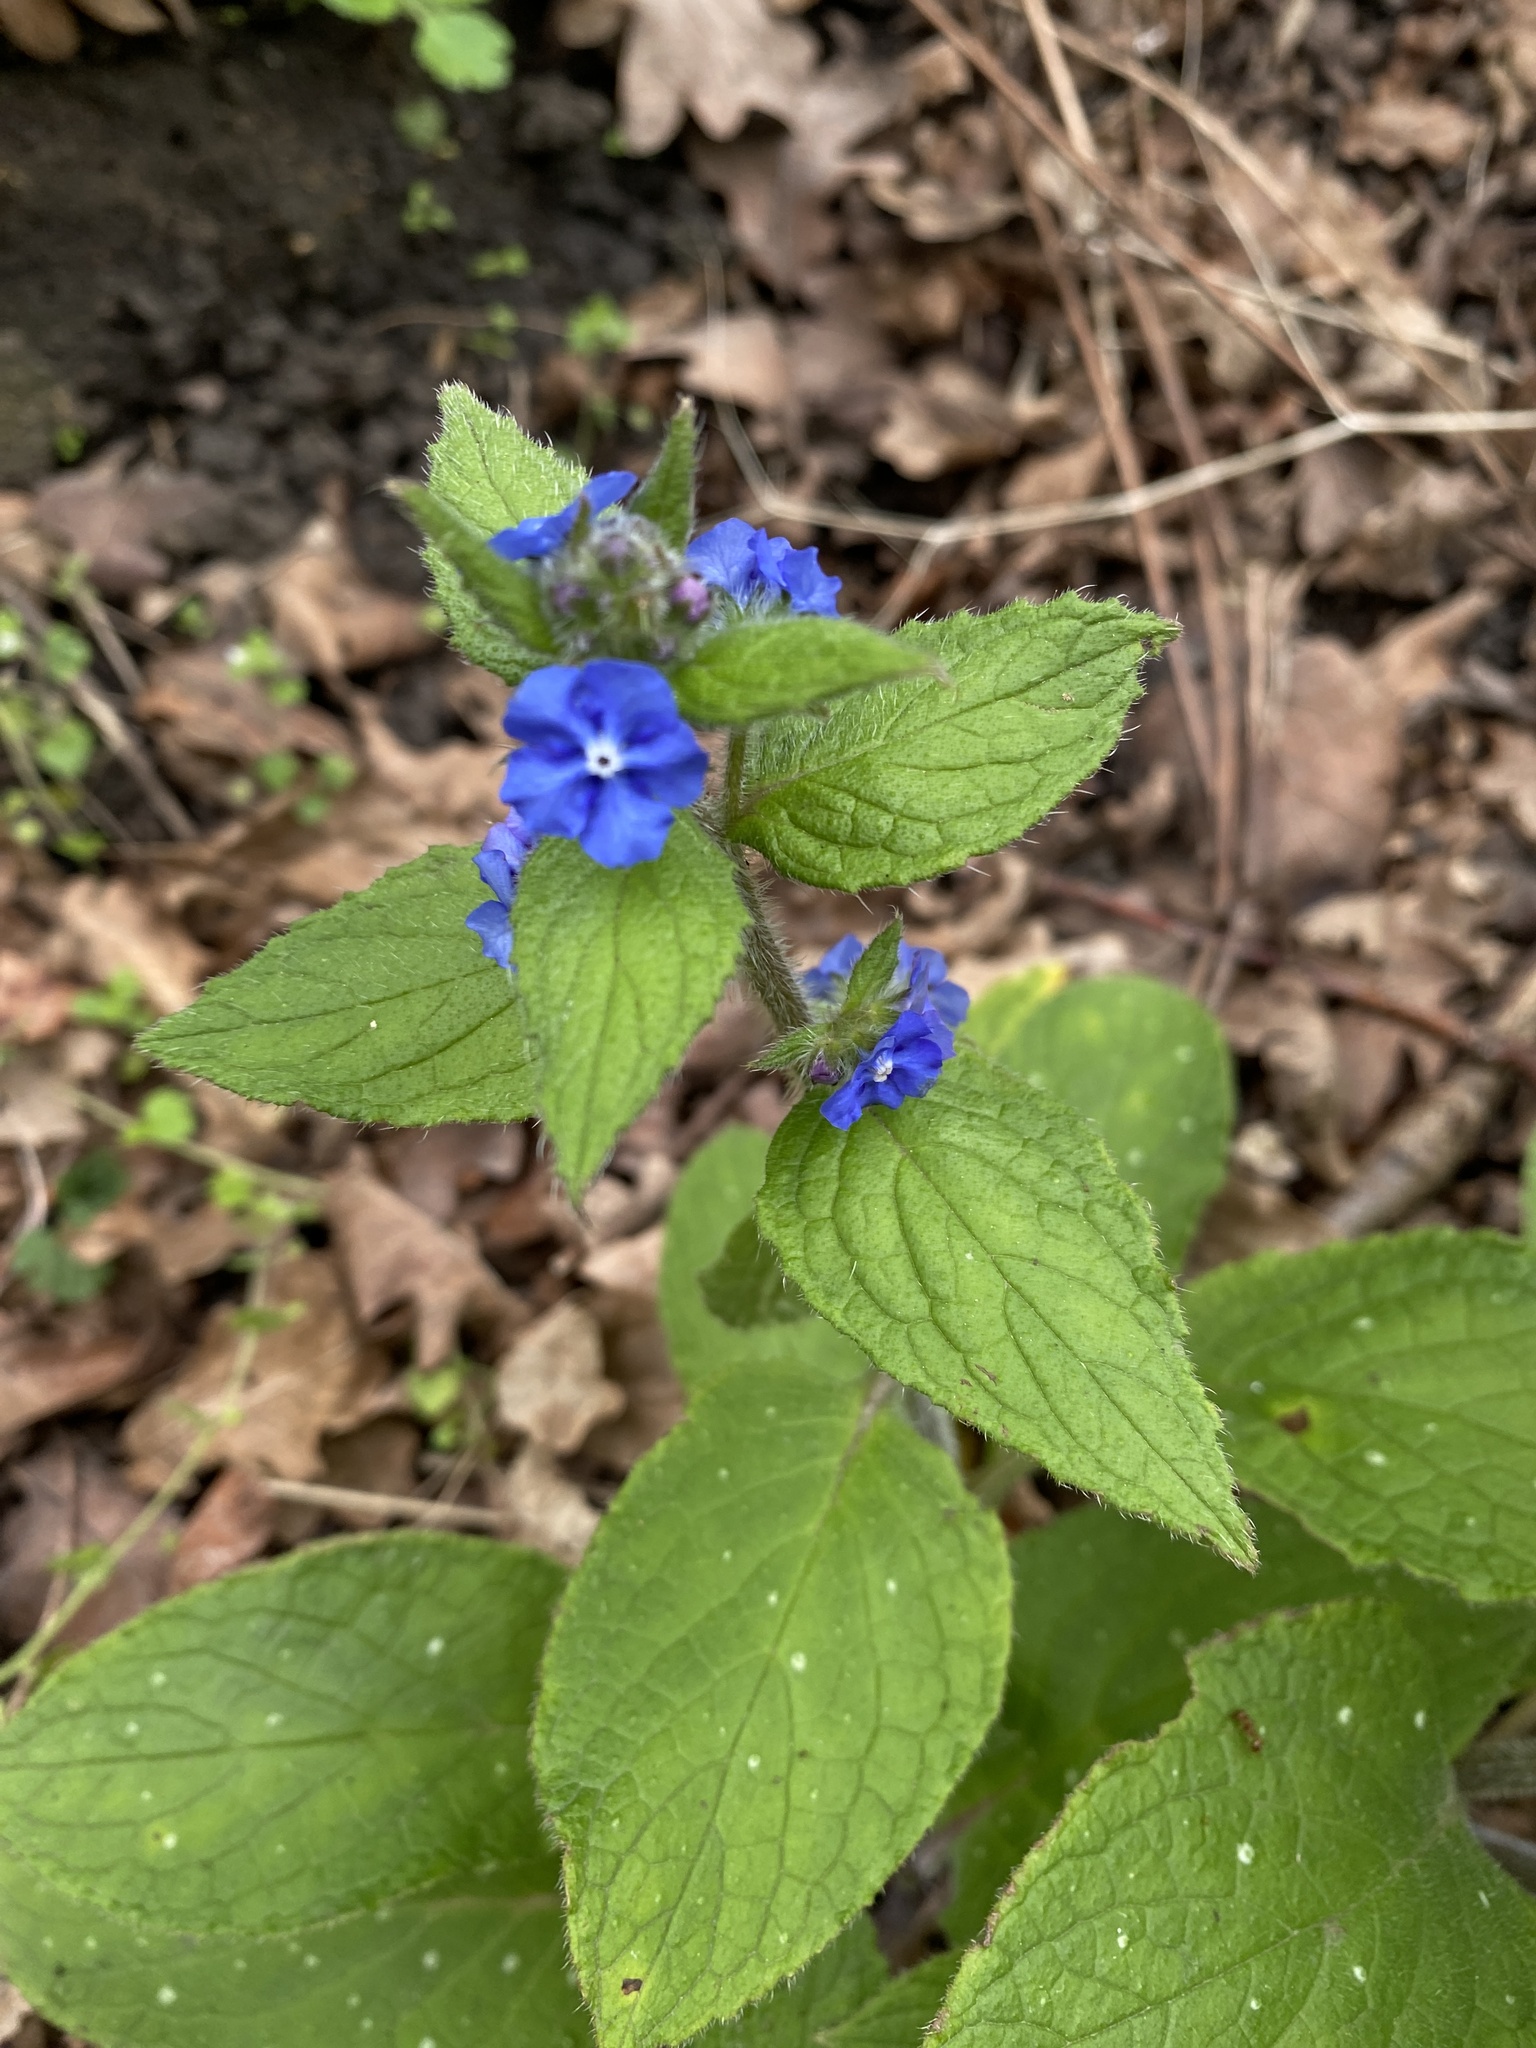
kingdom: Plantae
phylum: Tracheophyta
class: Magnoliopsida
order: Boraginales
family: Boraginaceae
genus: Pentaglottis
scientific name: Pentaglottis sempervirens
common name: Green alkanet
